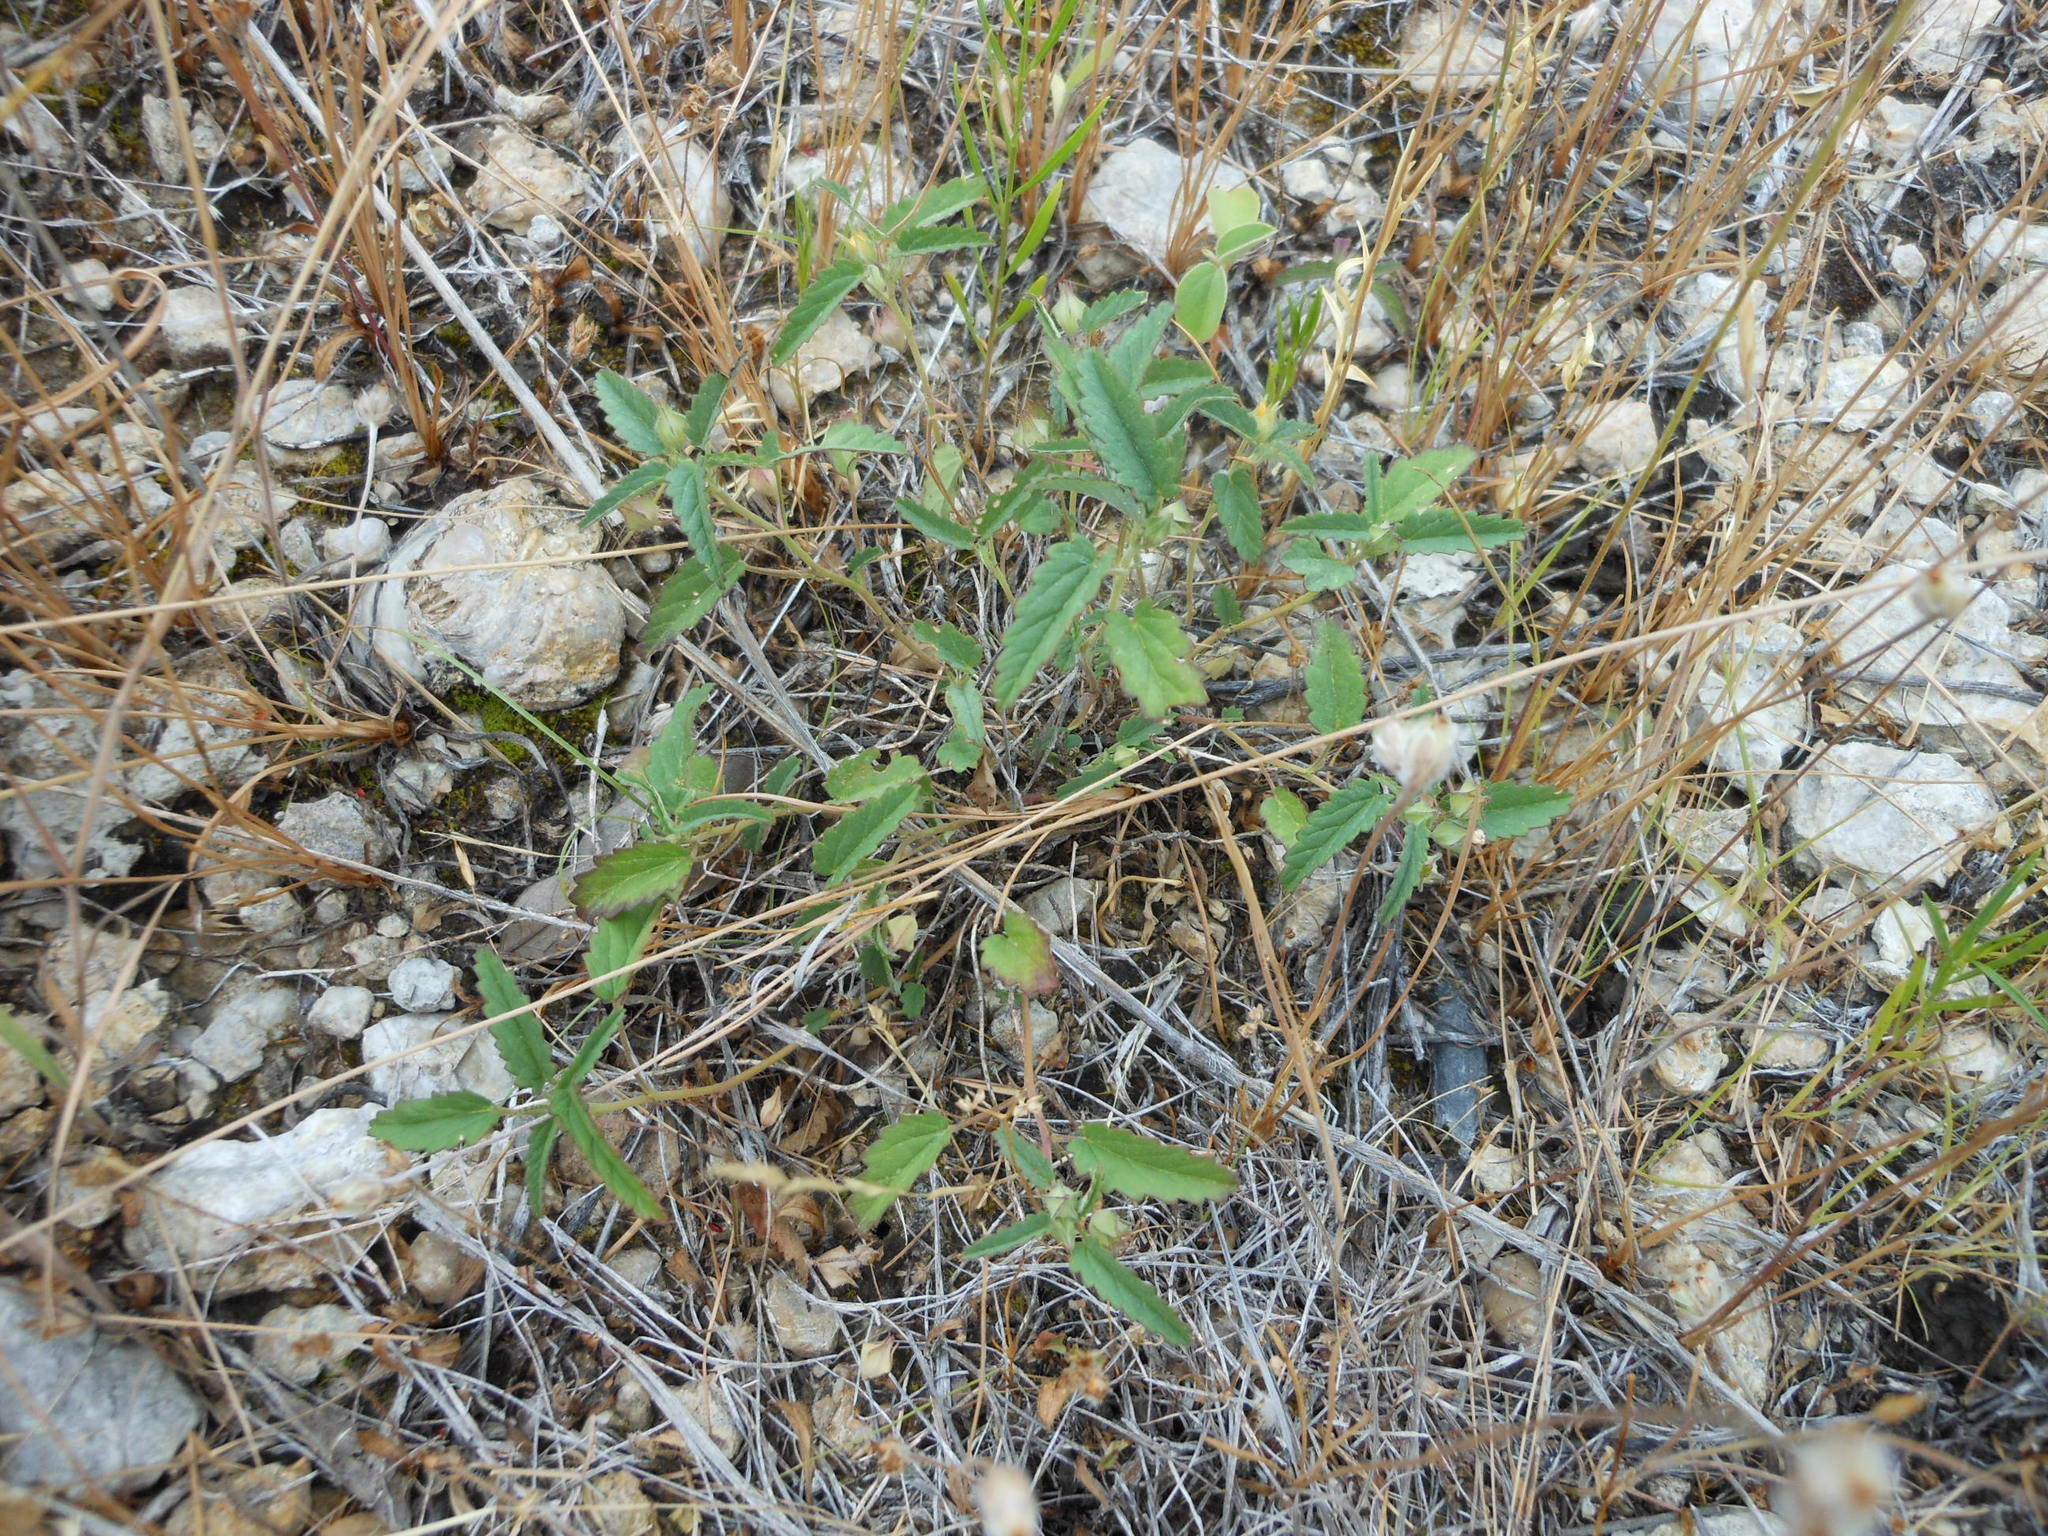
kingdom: Plantae
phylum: Tracheophyta
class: Magnoliopsida
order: Malvales
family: Malvaceae
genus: Sida
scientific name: Sida abutilifolia
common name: Spreading fanpetals
